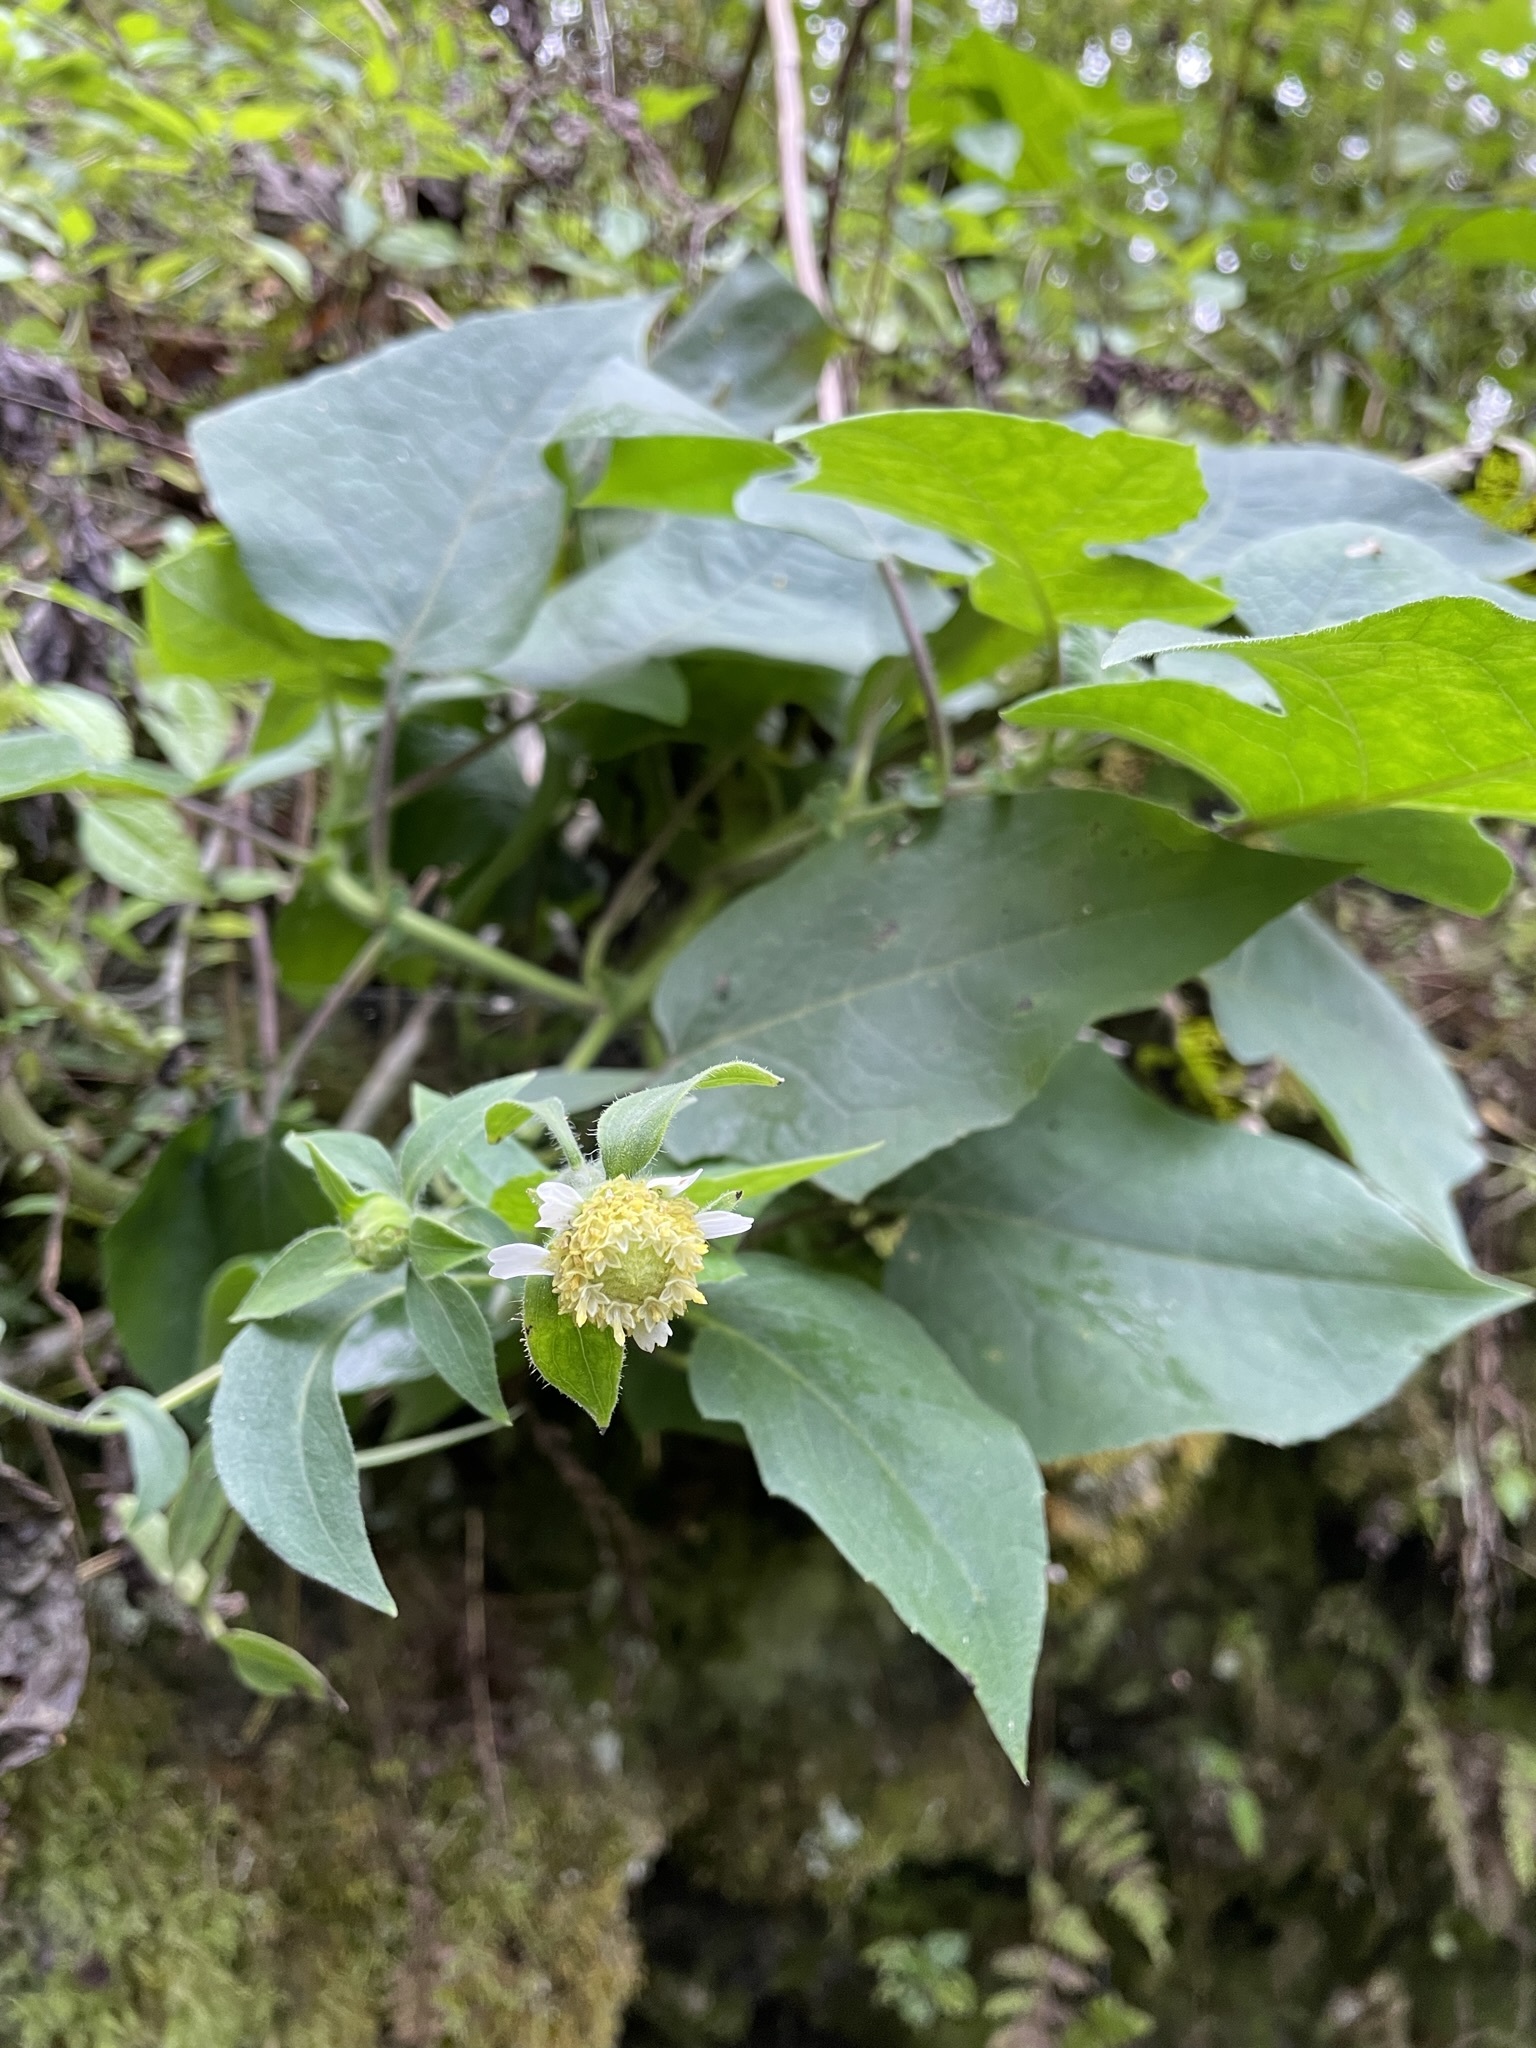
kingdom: Plantae
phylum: Tracheophyta
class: Magnoliopsida
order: Asterales
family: Asteraceae
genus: Polymnia
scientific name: Polymnia canadensis
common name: Pale-flowered leafcup
